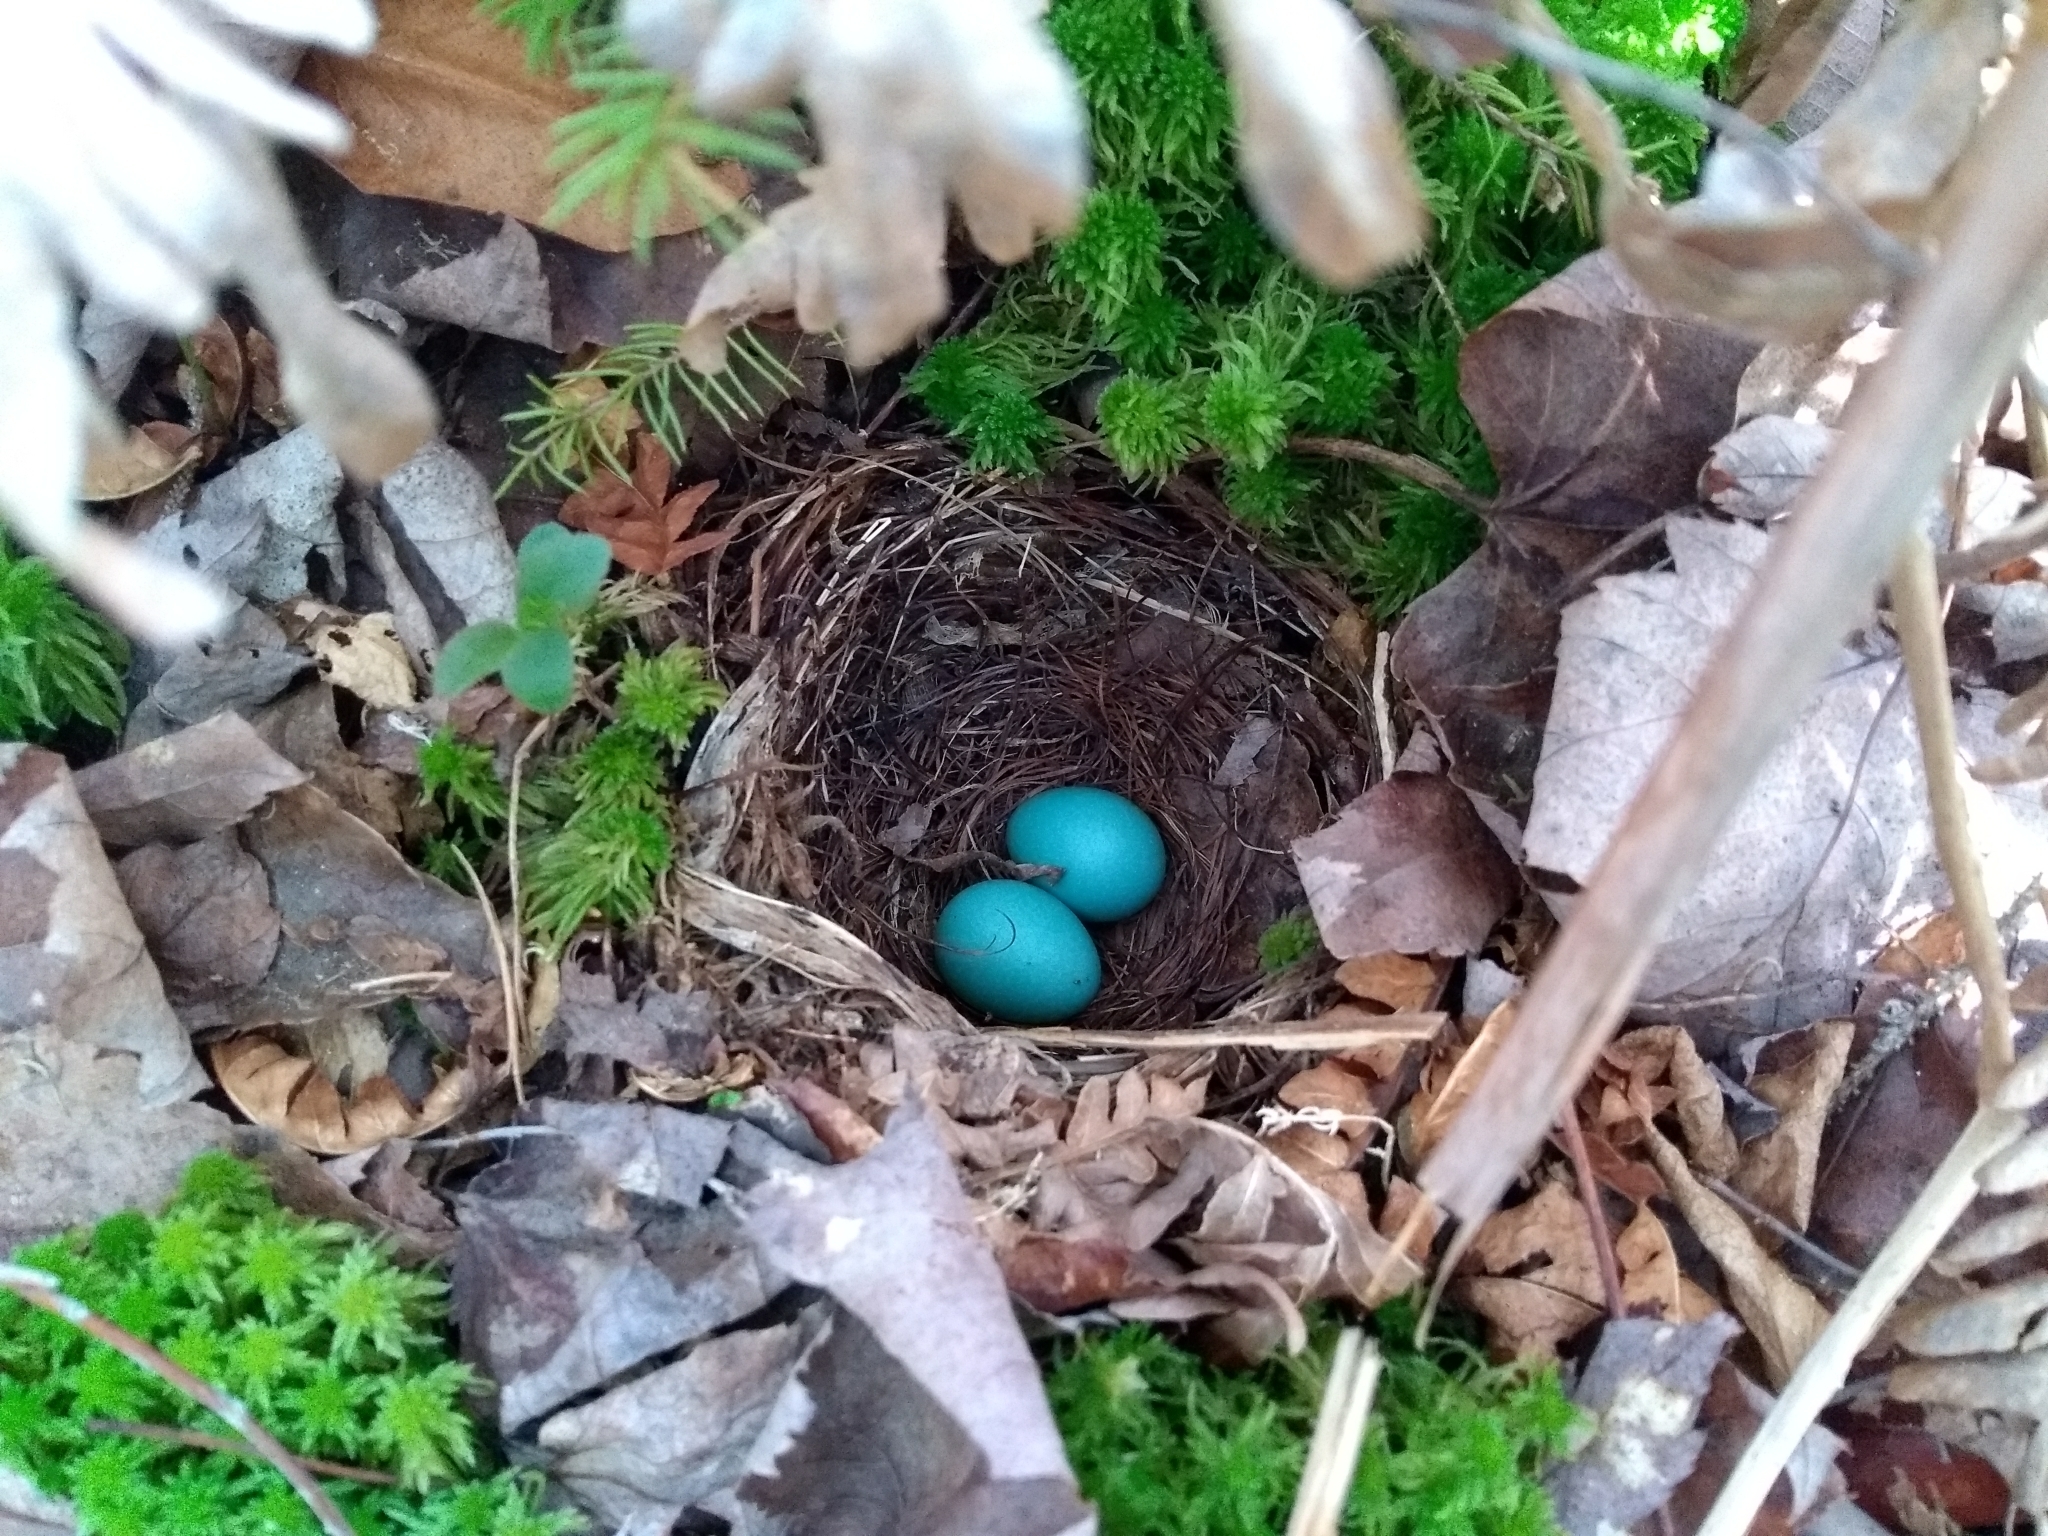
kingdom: Animalia
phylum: Chordata
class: Aves
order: Passeriformes
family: Turdidae
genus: Catharus
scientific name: Catharus guttatus
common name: Hermit thrush
